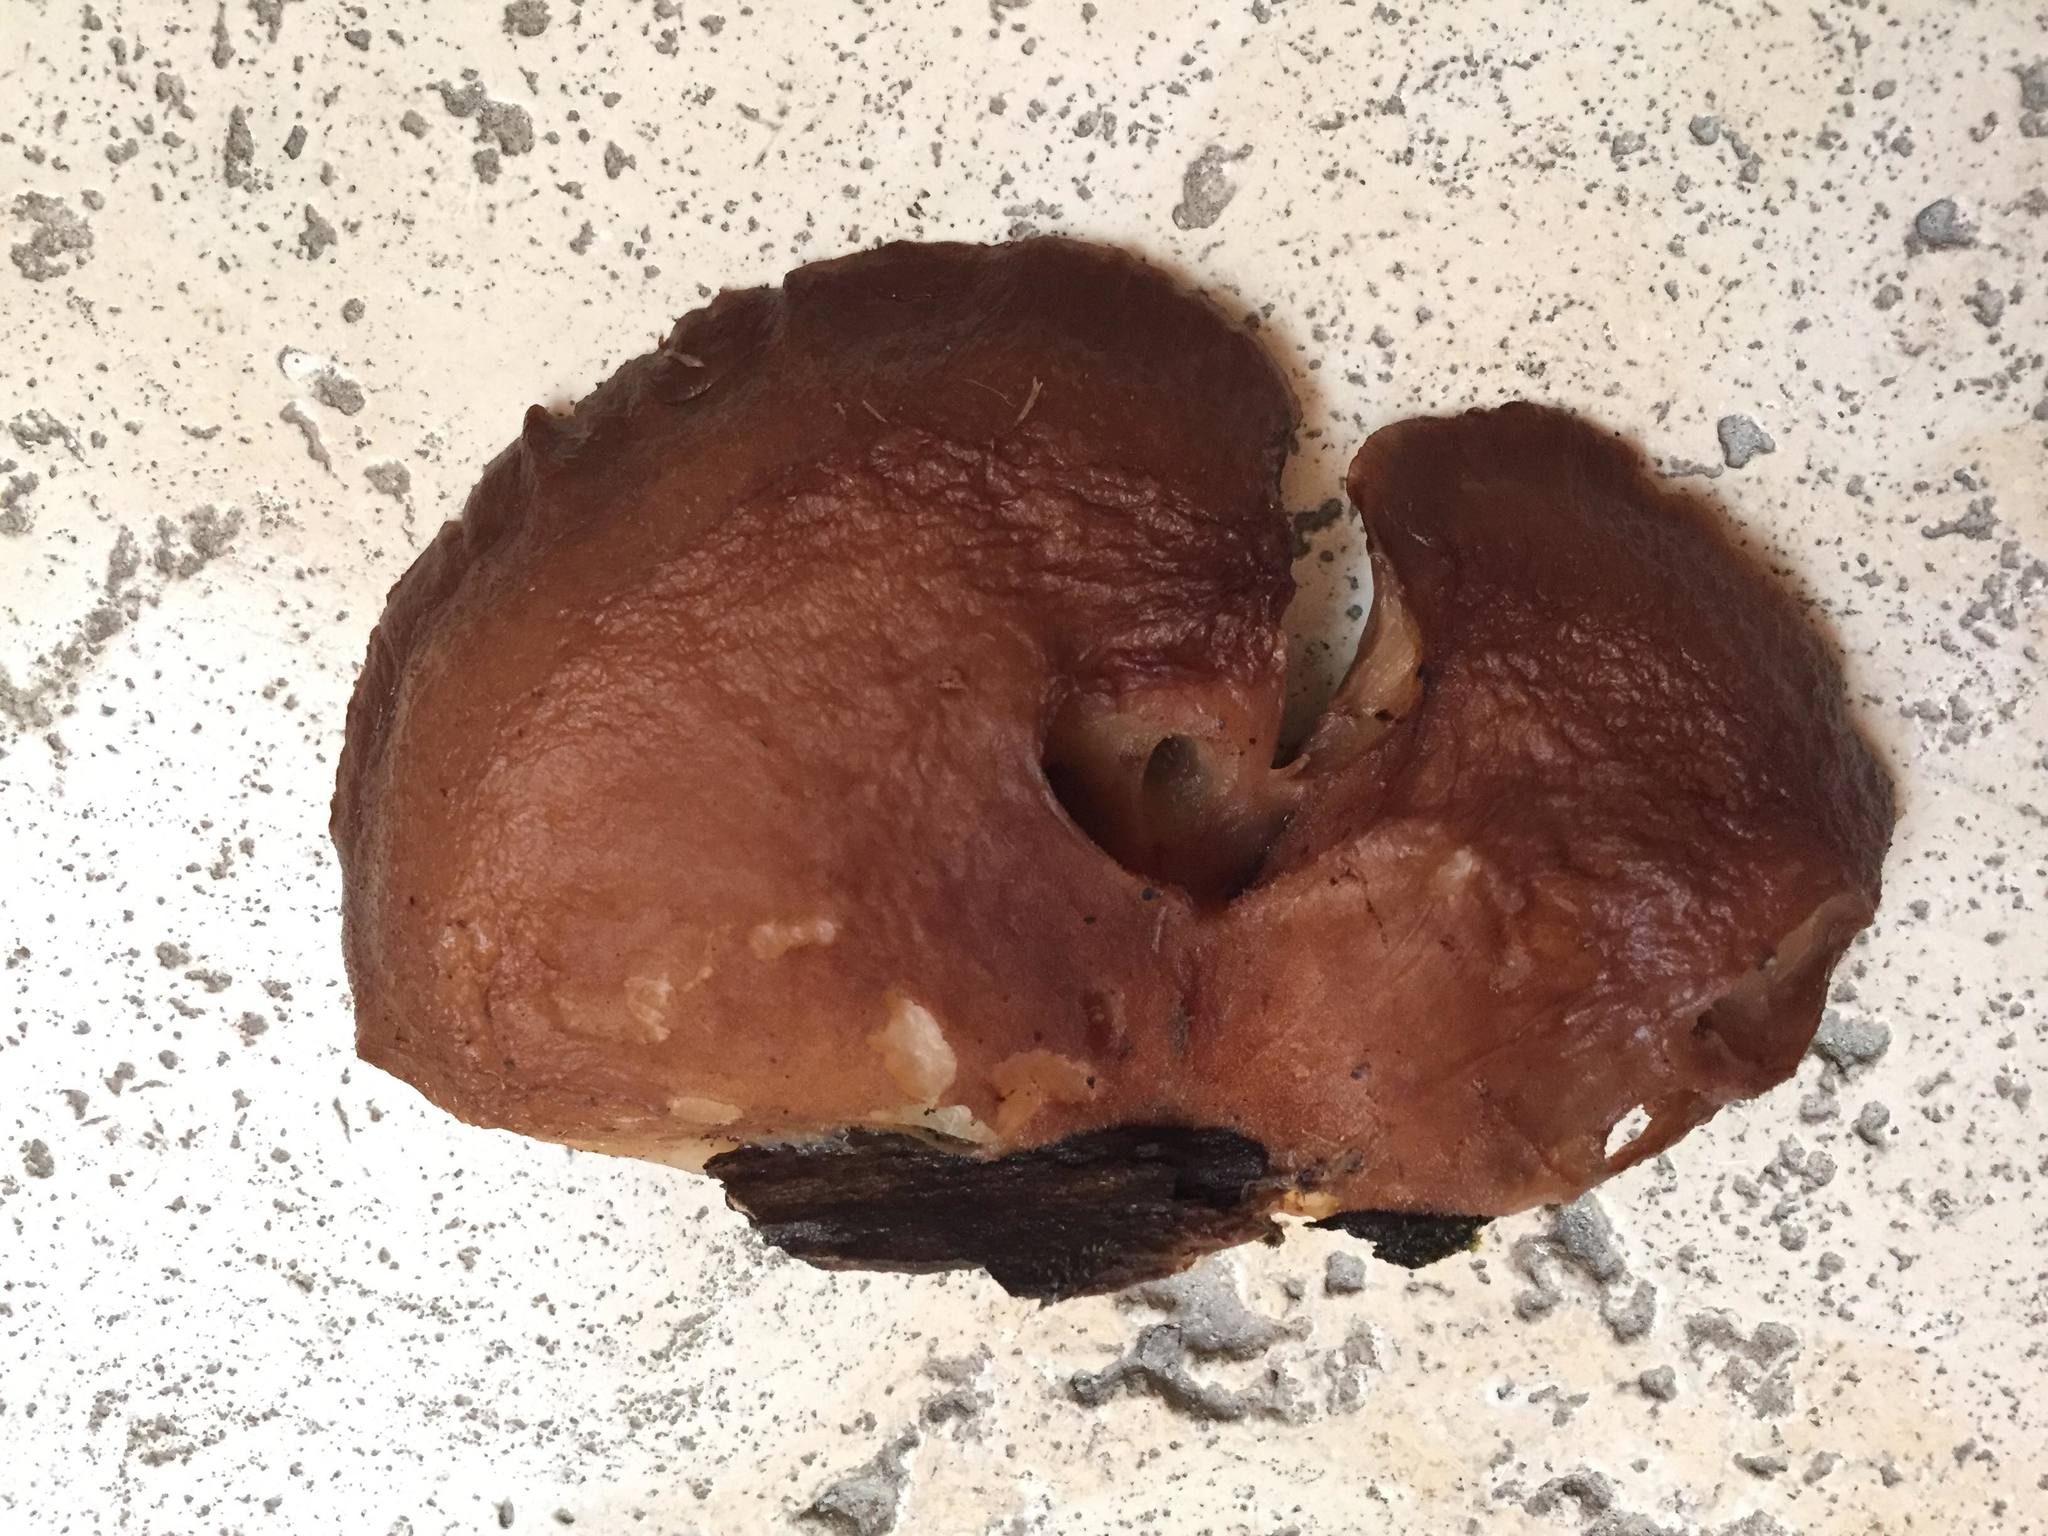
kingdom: Fungi
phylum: Basidiomycota
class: Agaricomycetes
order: Agaricales
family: Sarcomyxaceae
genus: Sarcomyxa
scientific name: Sarcomyxa serotina
